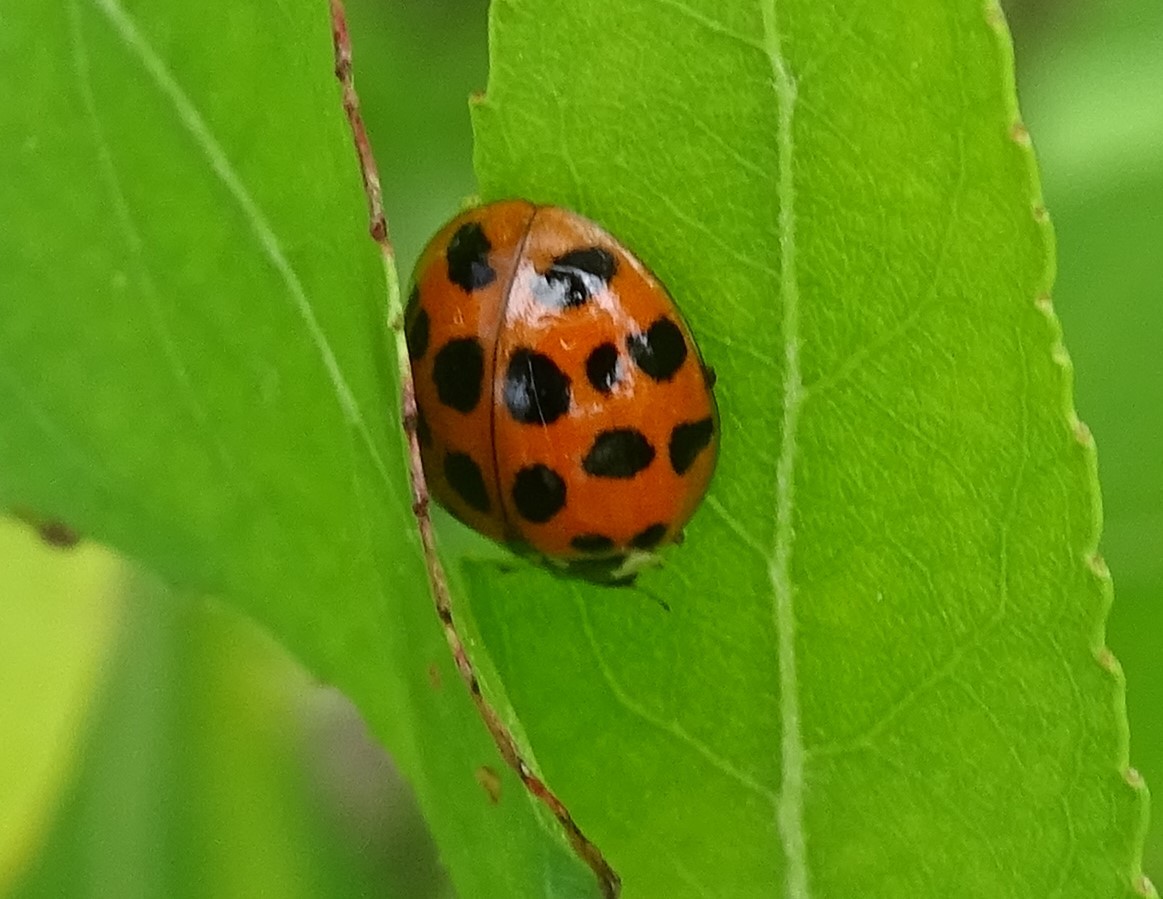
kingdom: Animalia
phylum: Arthropoda
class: Insecta
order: Coleoptera
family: Coccinellidae
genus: Harmonia
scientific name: Harmonia axyridis
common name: Harlequin ladybird
